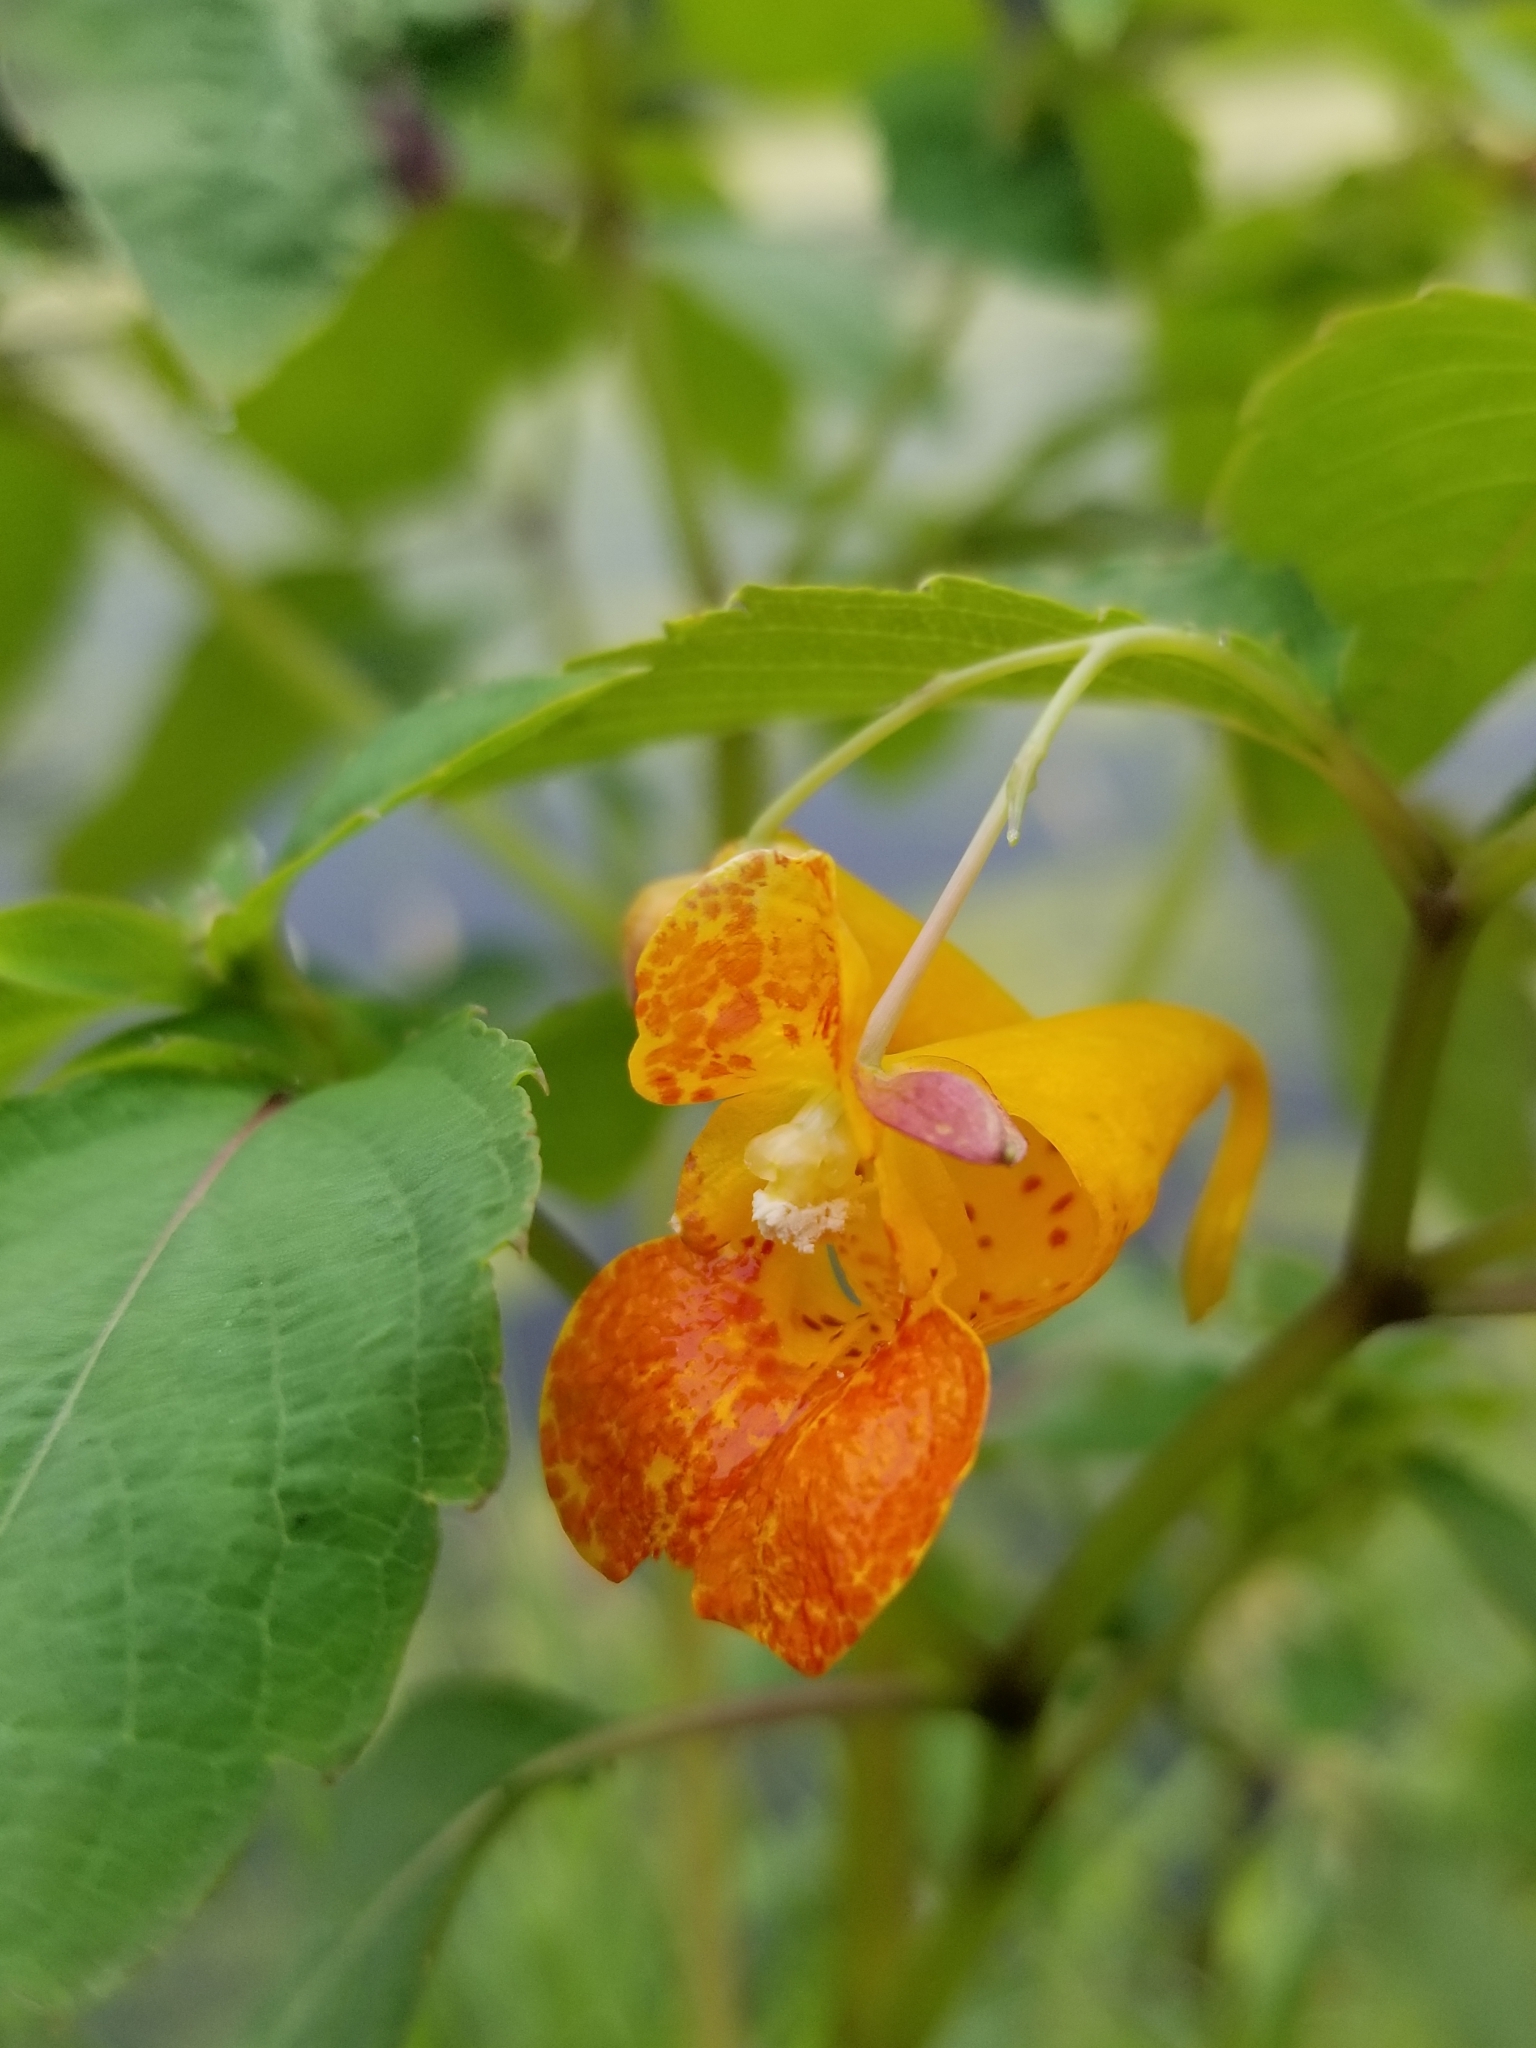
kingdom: Plantae
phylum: Tracheophyta
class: Magnoliopsida
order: Ericales
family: Balsaminaceae
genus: Impatiens
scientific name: Impatiens capensis
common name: Orange balsam
